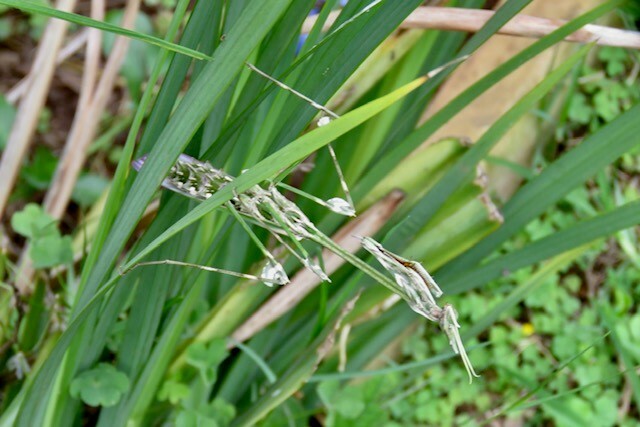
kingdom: Animalia
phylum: Arthropoda
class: Insecta
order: Mantodea
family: Empusidae
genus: Hemiempusa
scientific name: Hemiempusa capensis
